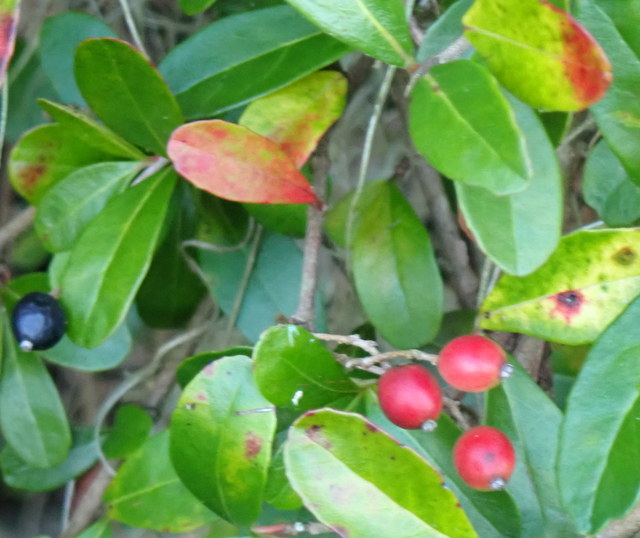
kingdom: Plantae
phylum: Tracheophyta
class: Magnoliopsida
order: Dipsacales
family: Viburnaceae
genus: Viburnum
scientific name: Viburnum obovatum
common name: Walter's viburnum
